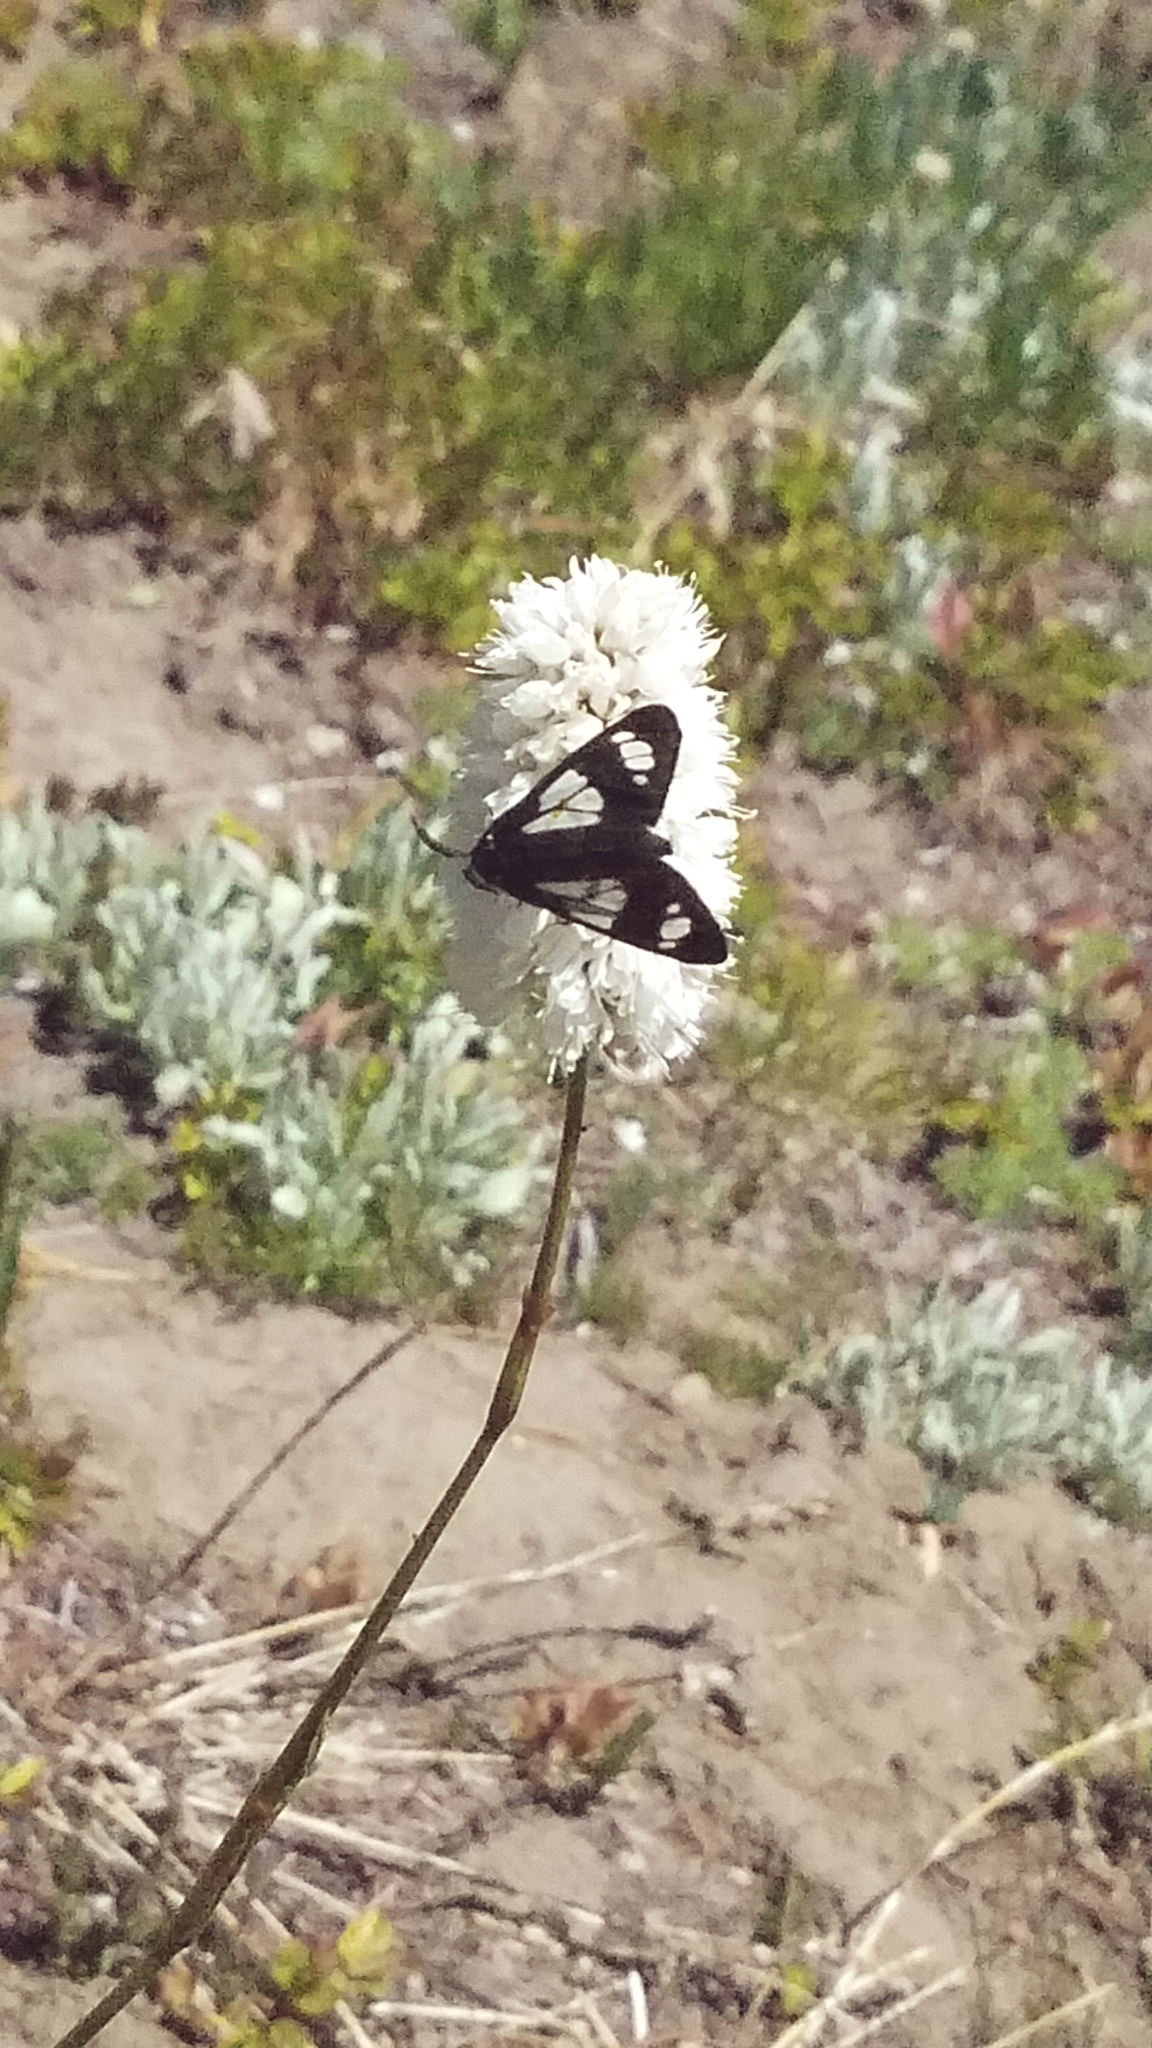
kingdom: Animalia
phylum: Arthropoda
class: Insecta
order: Lepidoptera
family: Erebidae
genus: Gnophaela
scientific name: Gnophaela vermiculata
